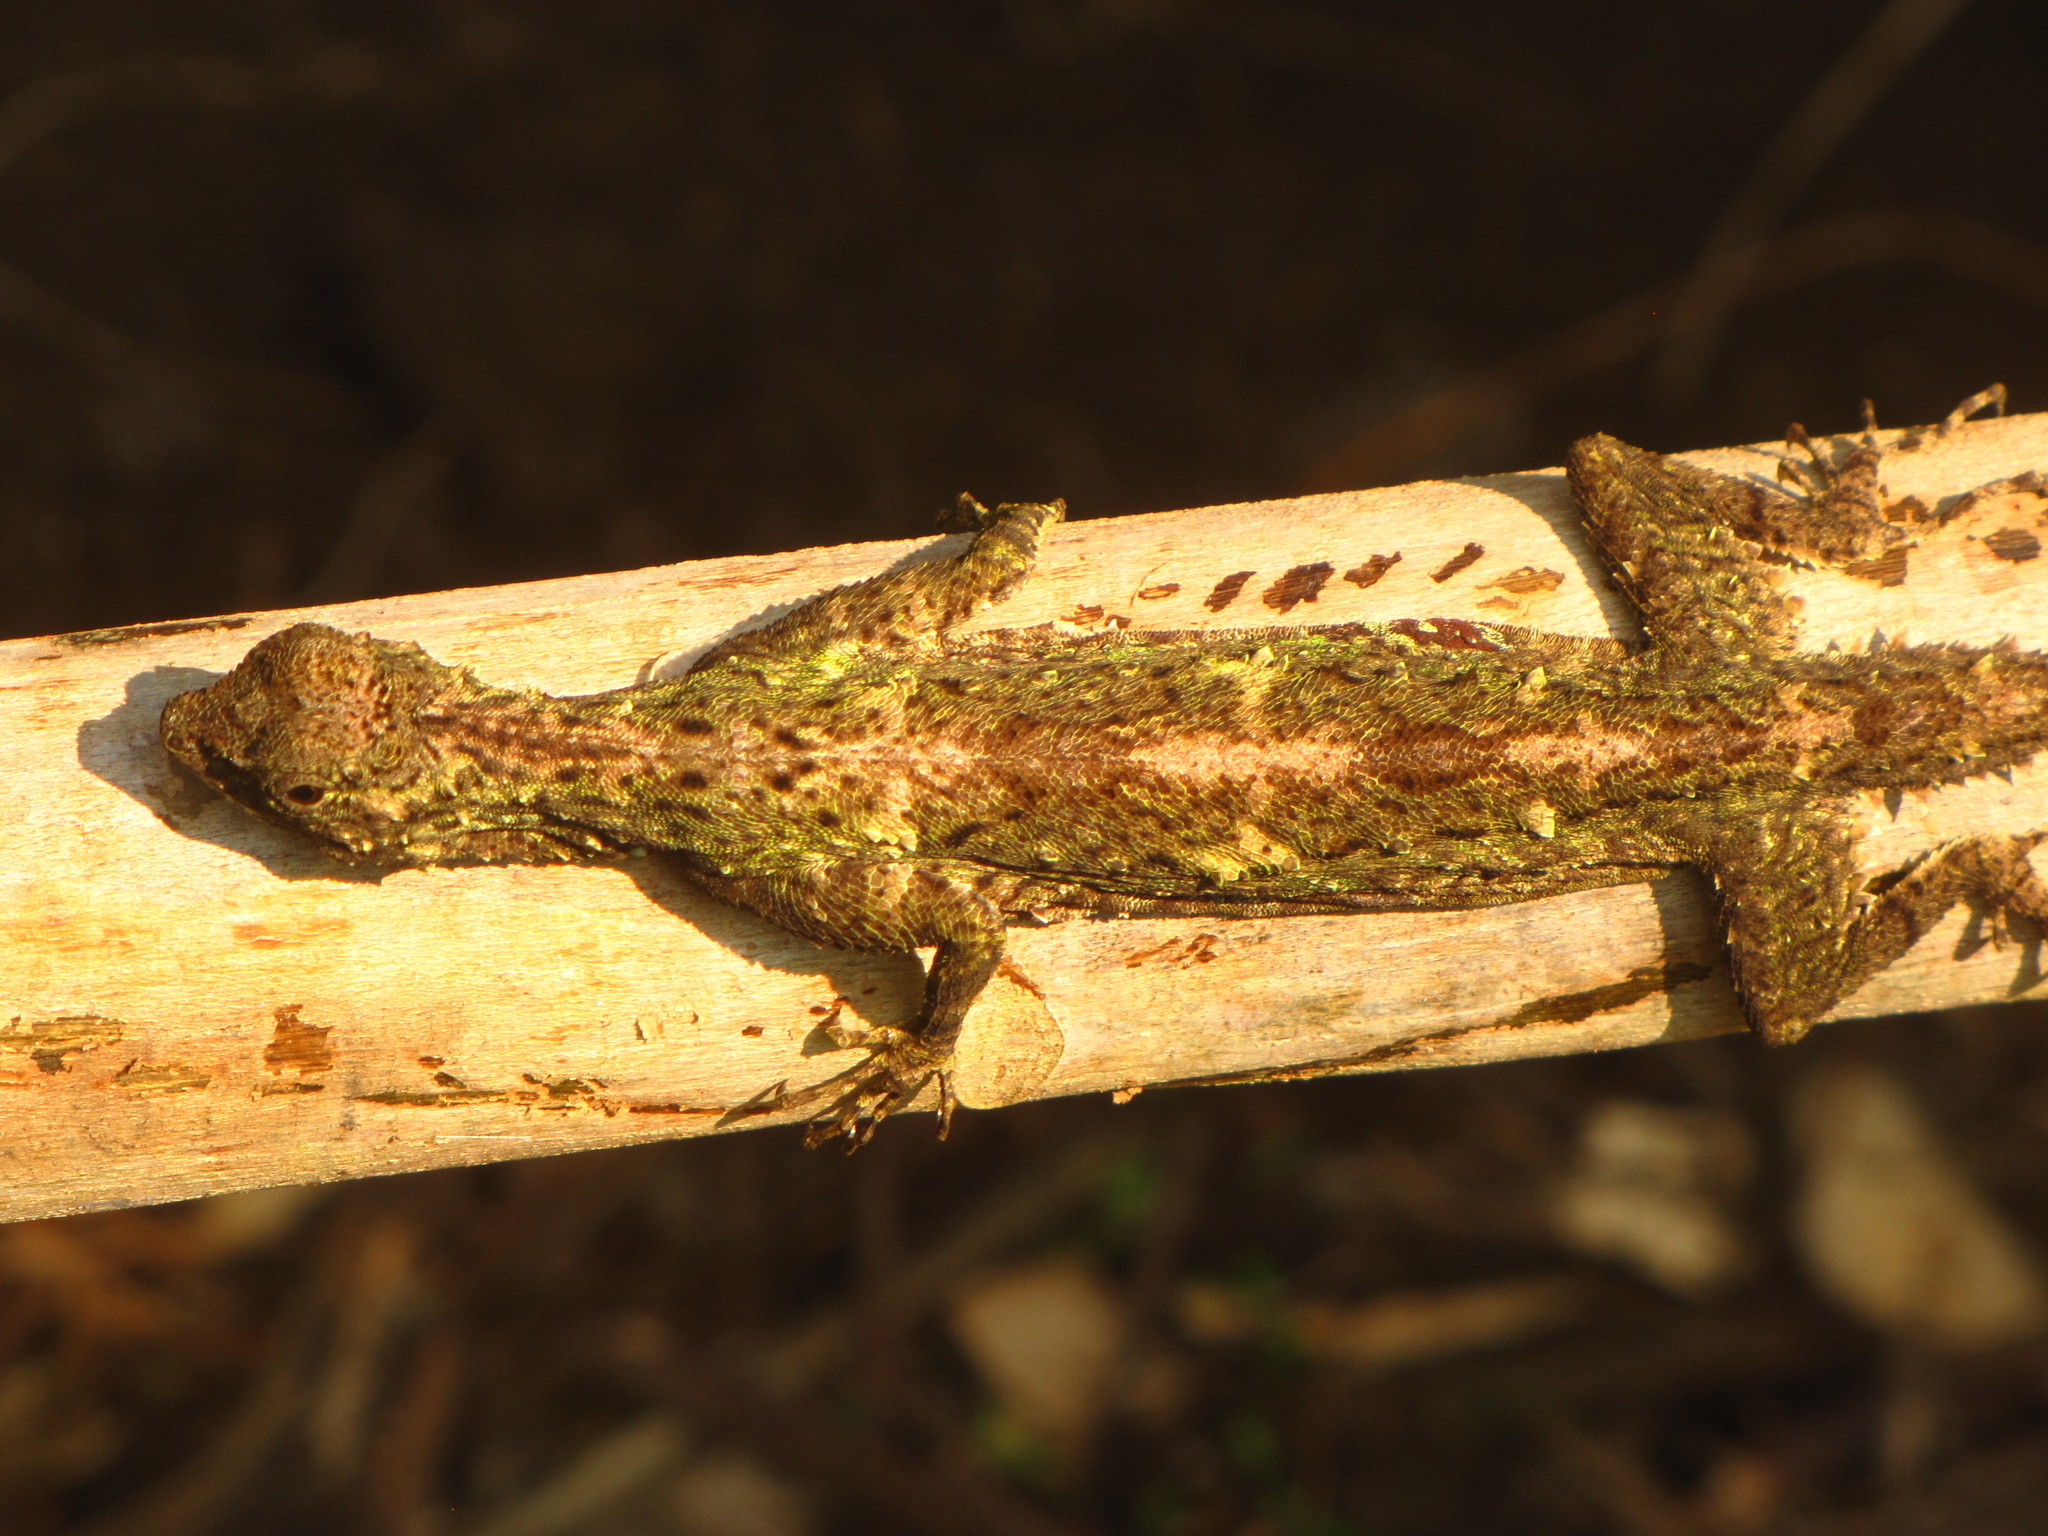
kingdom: Animalia
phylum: Chordata
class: Squamata
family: Agamidae
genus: Draco
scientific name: Draco norvillii
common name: Norvill's flying lizard
